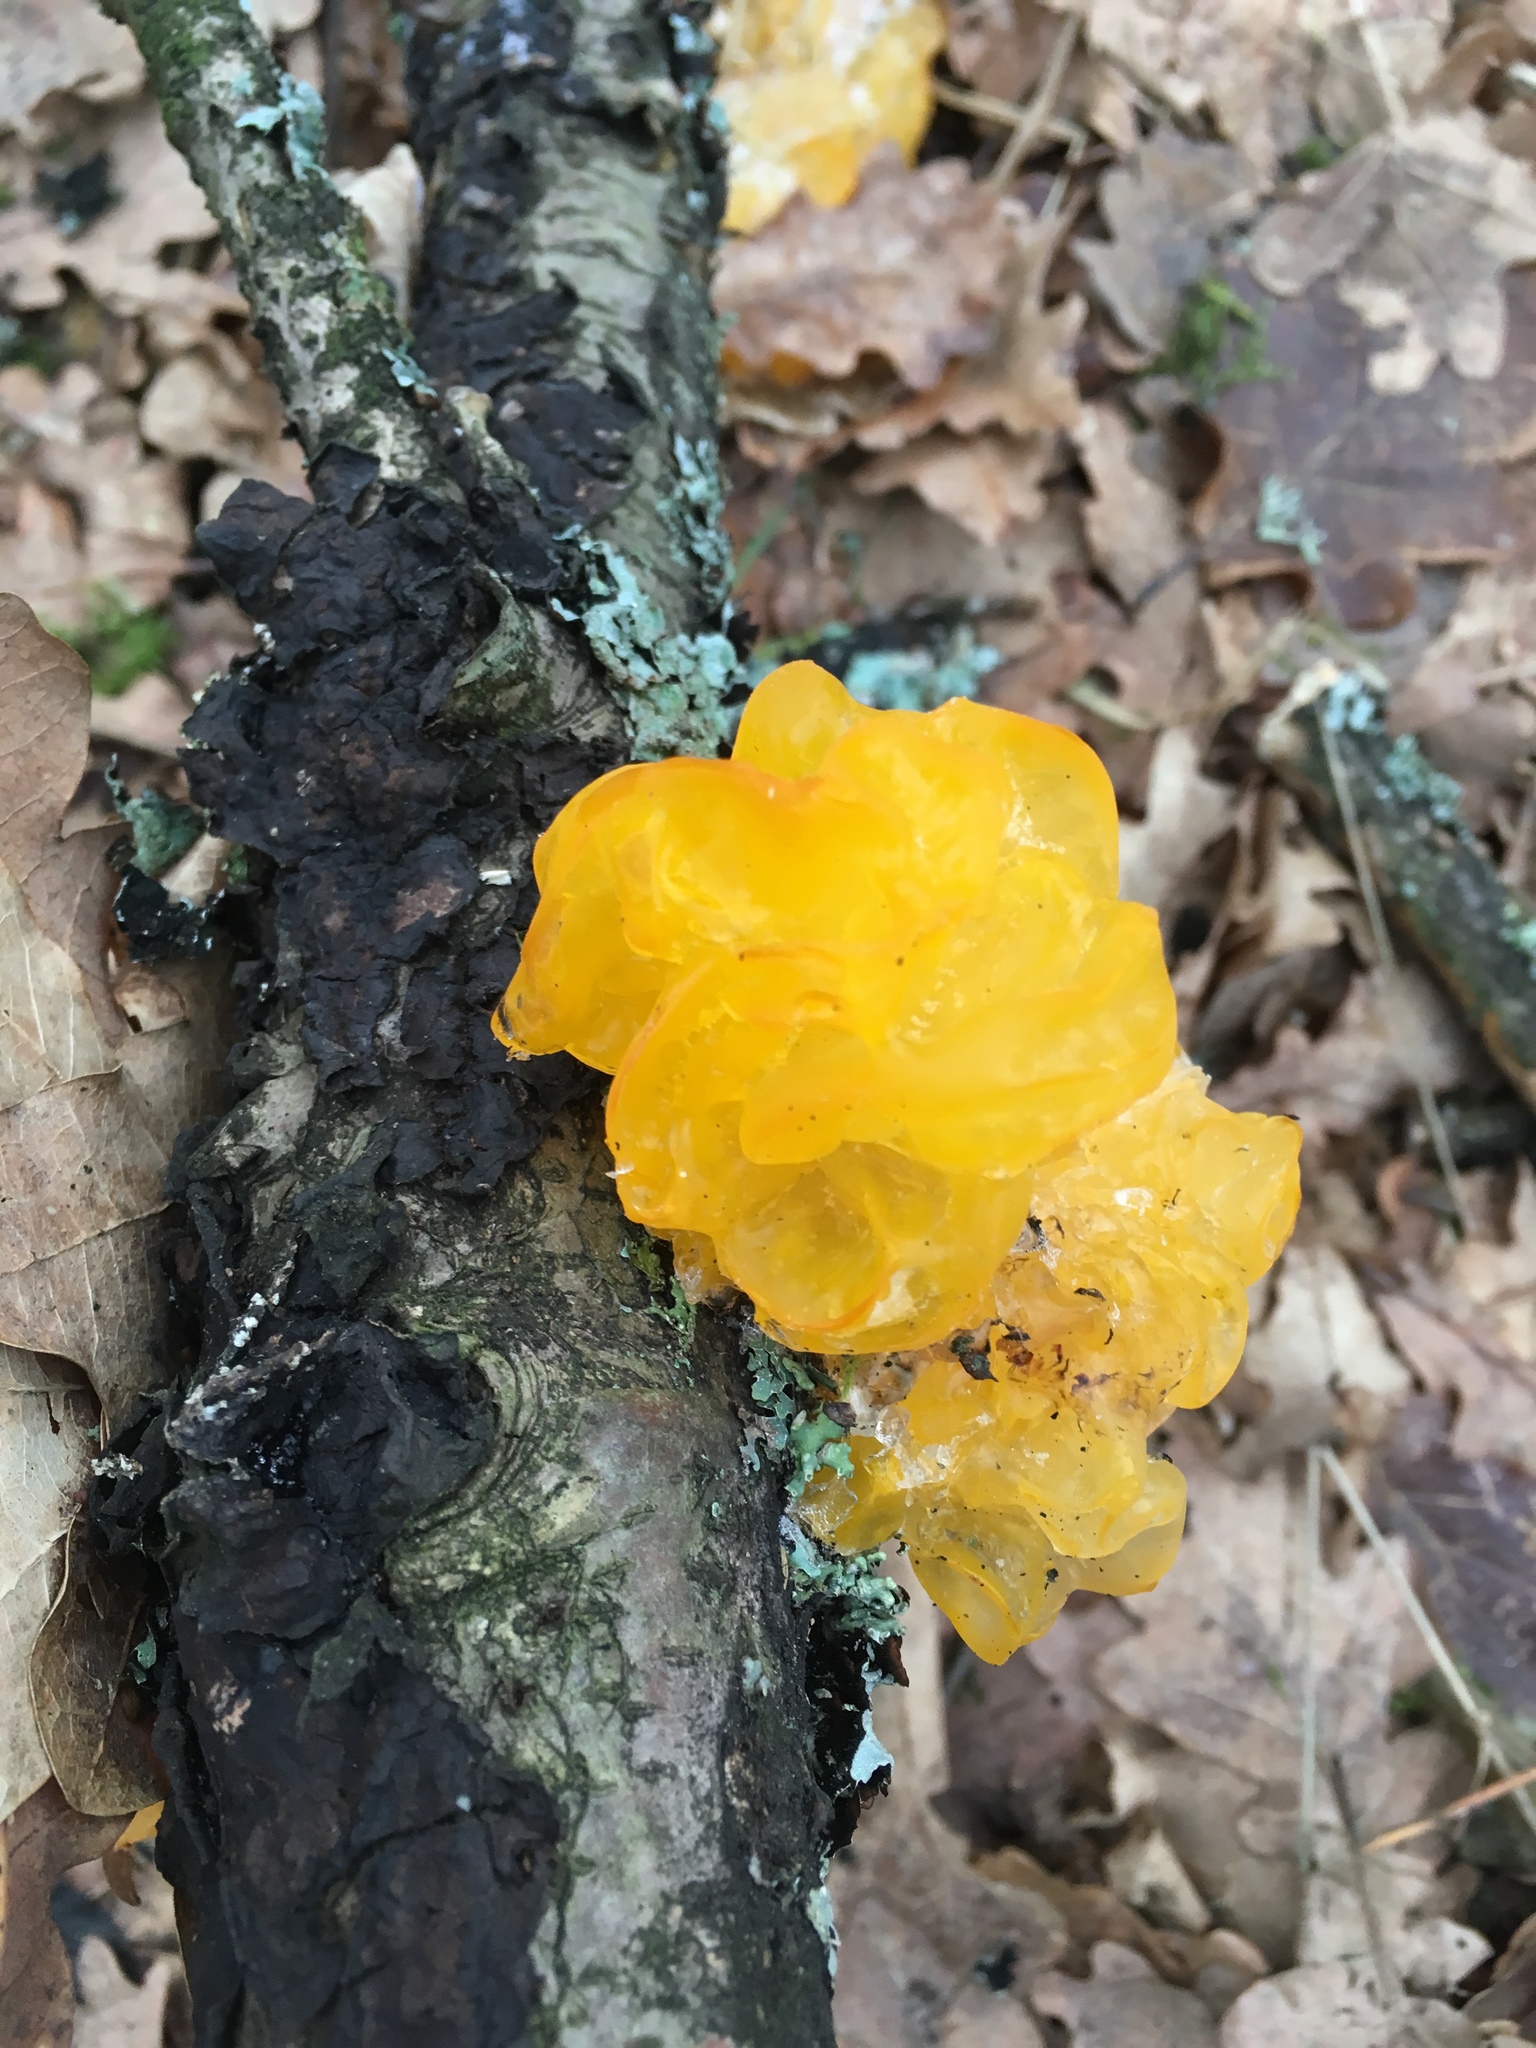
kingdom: Fungi
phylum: Basidiomycota
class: Tremellomycetes
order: Tremellales
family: Tremellaceae
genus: Tremella
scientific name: Tremella mesenterica
